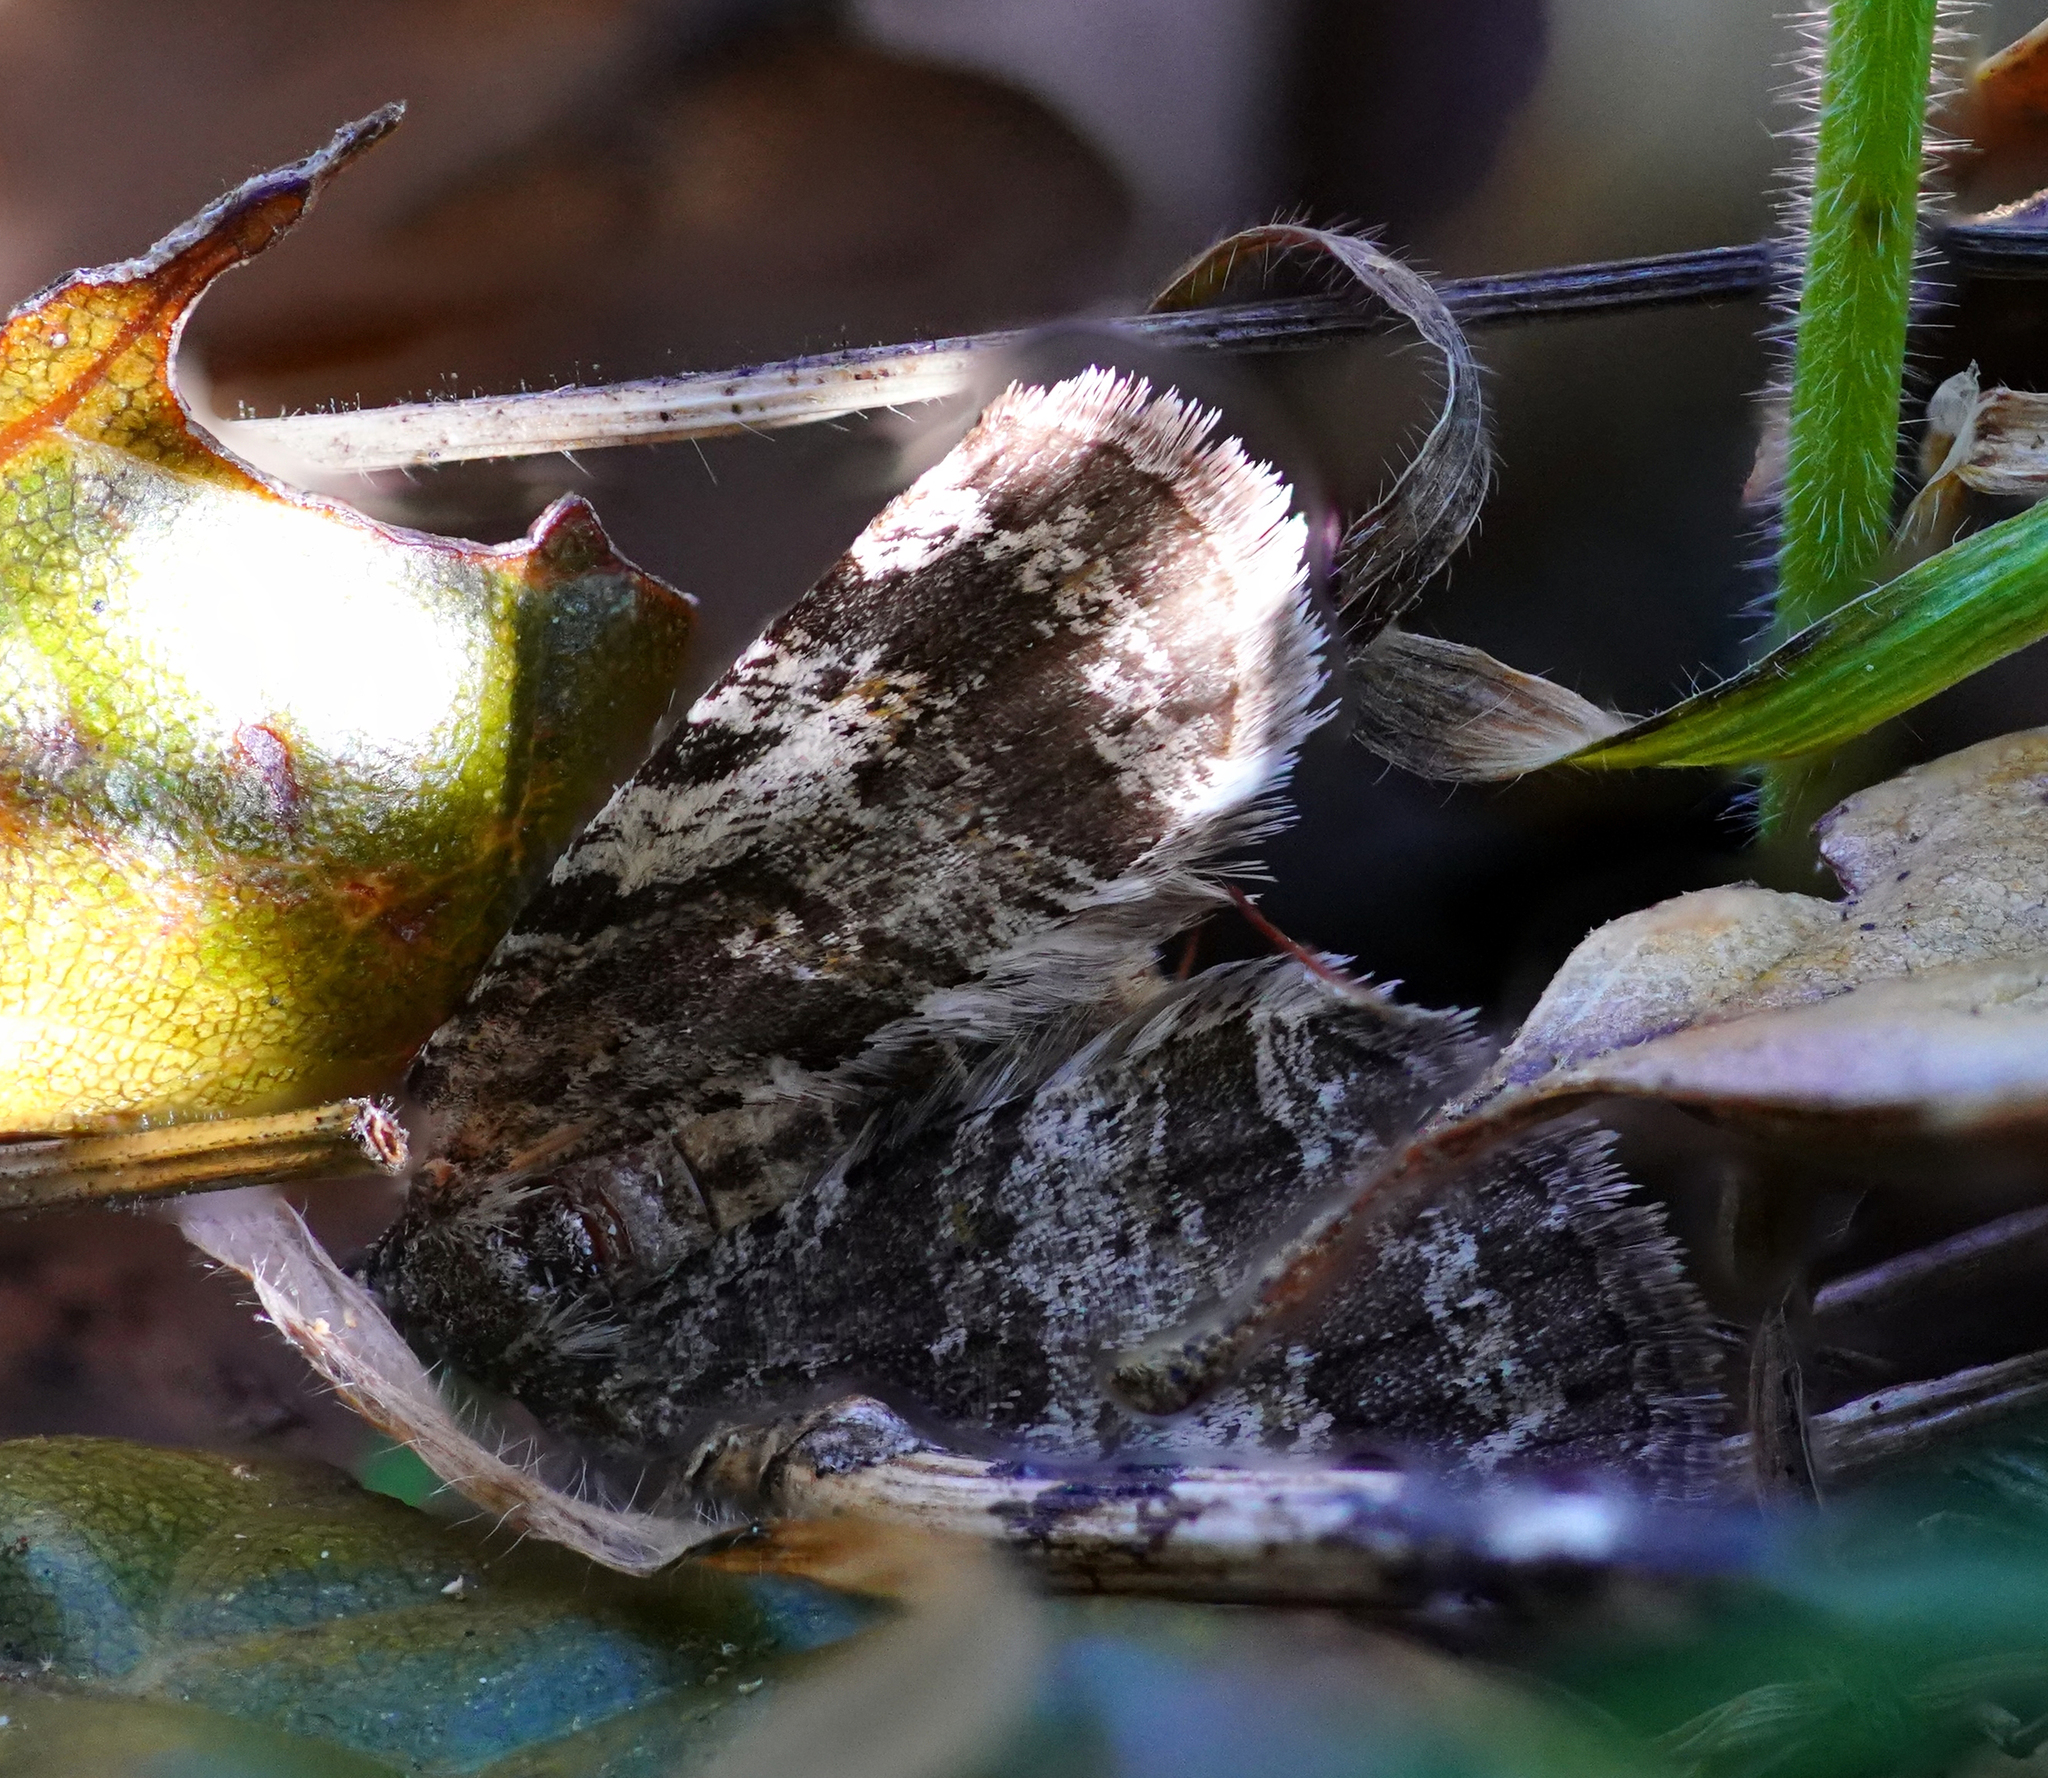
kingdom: Animalia
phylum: Arthropoda
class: Insecta
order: Lepidoptera
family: Geometridae
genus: Hydriomena
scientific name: Hydriomena nubilofasciata
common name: Oak winter highflier moth
